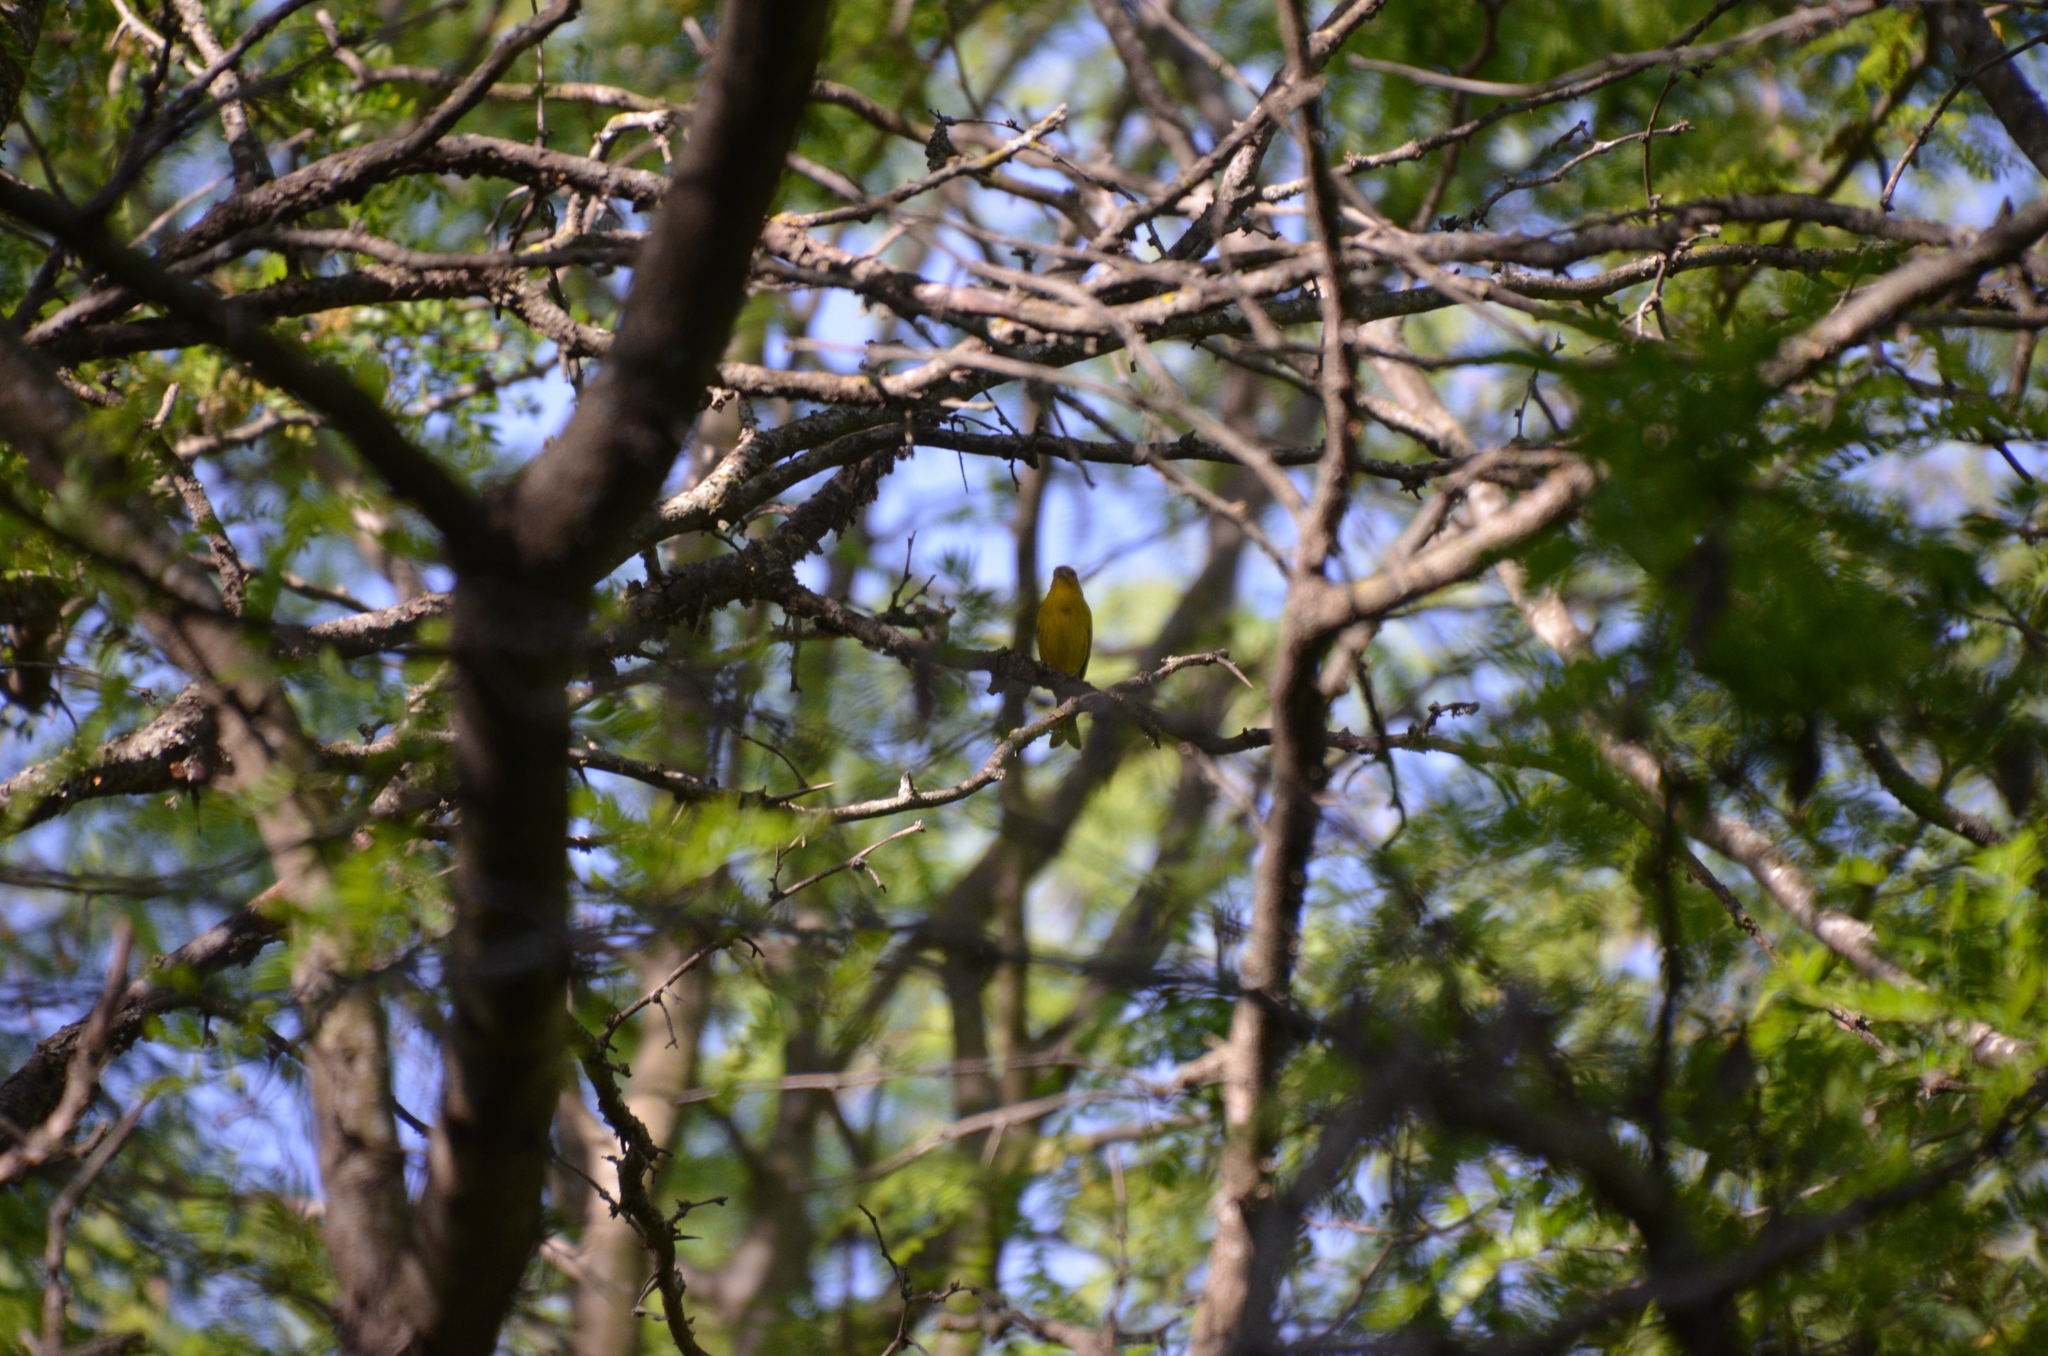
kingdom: Animalia
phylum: Chordata
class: Aves
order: Passeriformes
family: Thraupidae
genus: Sicalis
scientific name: Sicalis flaveola
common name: Saffron finch
